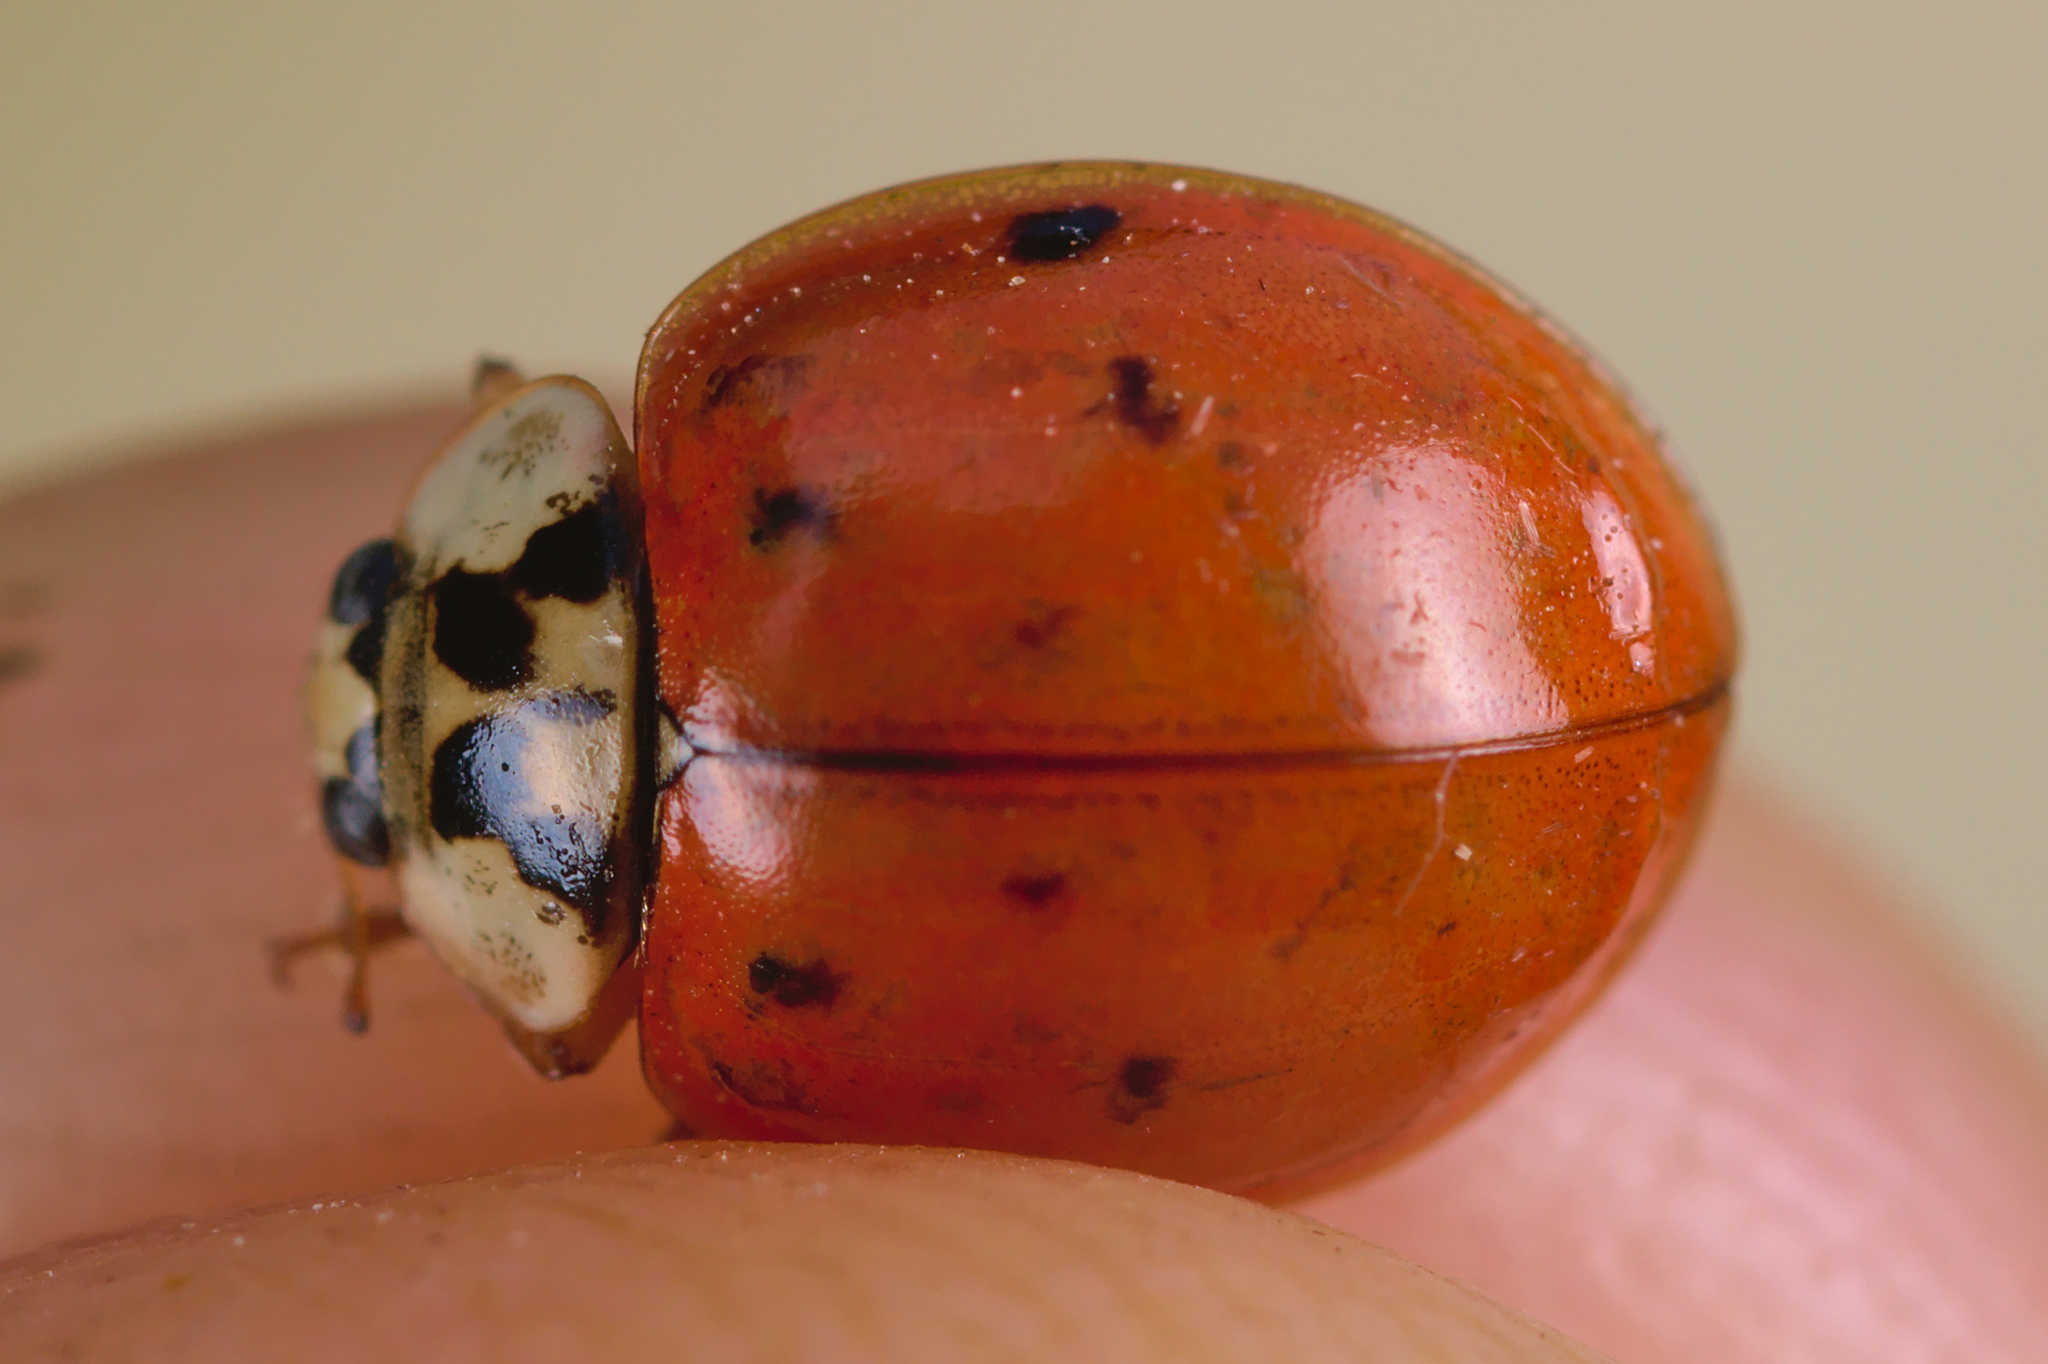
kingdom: Animalia
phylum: Arthropoda
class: Insecta
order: Coleoptera
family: Coccinellidae
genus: Harmonia
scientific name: Harmonia axyridis
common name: Harlequin ladybird
